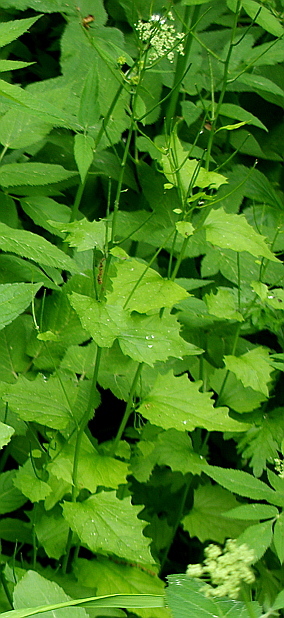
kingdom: Plantae
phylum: Tracheophyta
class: Magnoliopsida
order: Brassicales
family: Brassicaceae
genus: Alliaria
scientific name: Alliaria petiolata
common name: Garlic mustard
